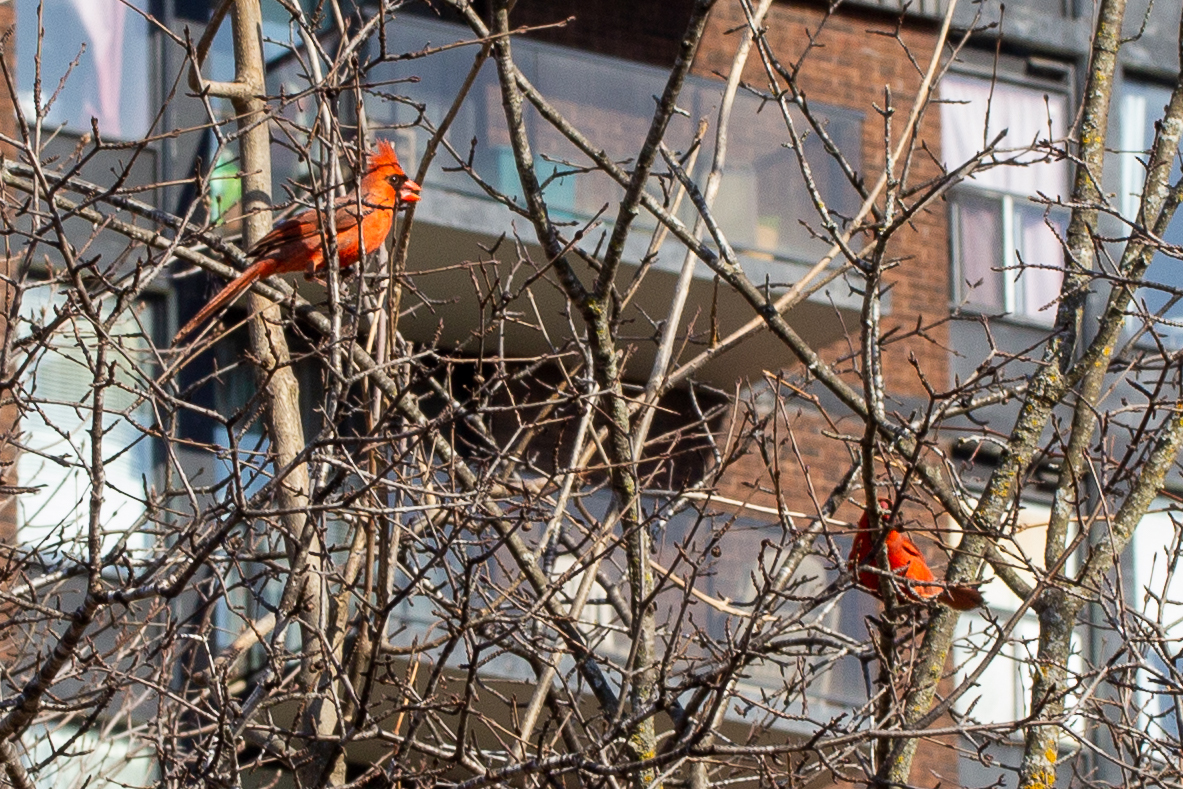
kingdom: Animalia
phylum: Chordata
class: Aves
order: Passeriformes
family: Cardinalidae
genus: Cardinalis
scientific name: Cardinalis cardinalis
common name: Northern cardinal
